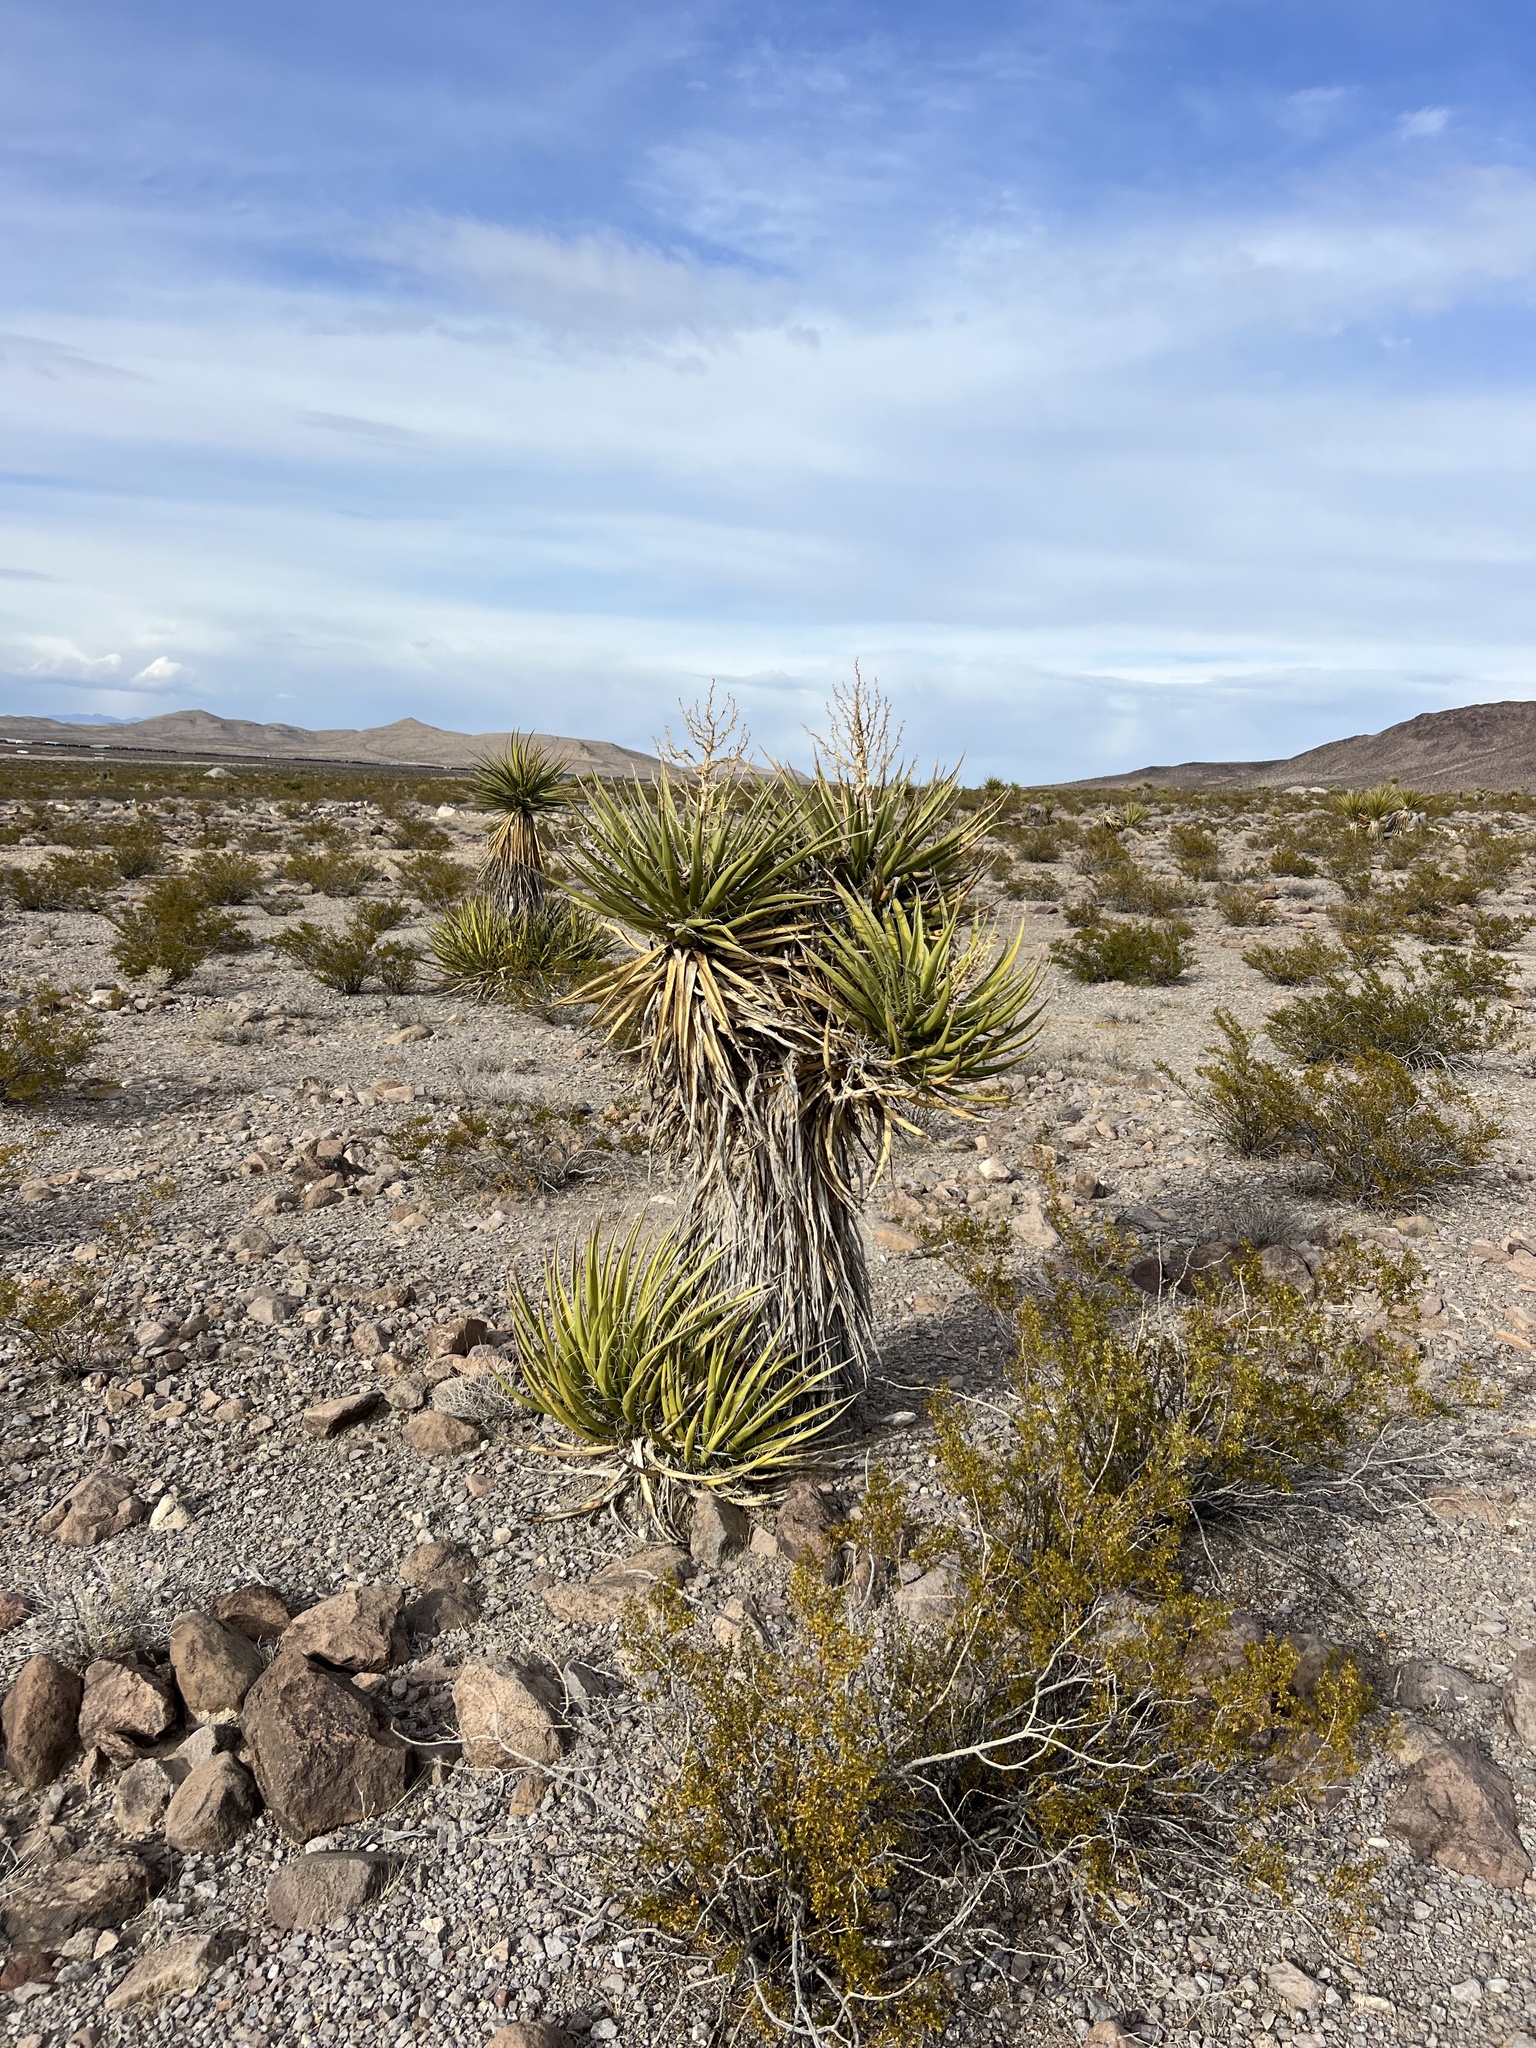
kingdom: Plantae
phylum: Tracheophyta
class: Liliopsida
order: Asparagales
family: Asparagaceae
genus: Yucca
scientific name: Yucca schidigera
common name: Mojave yucca
